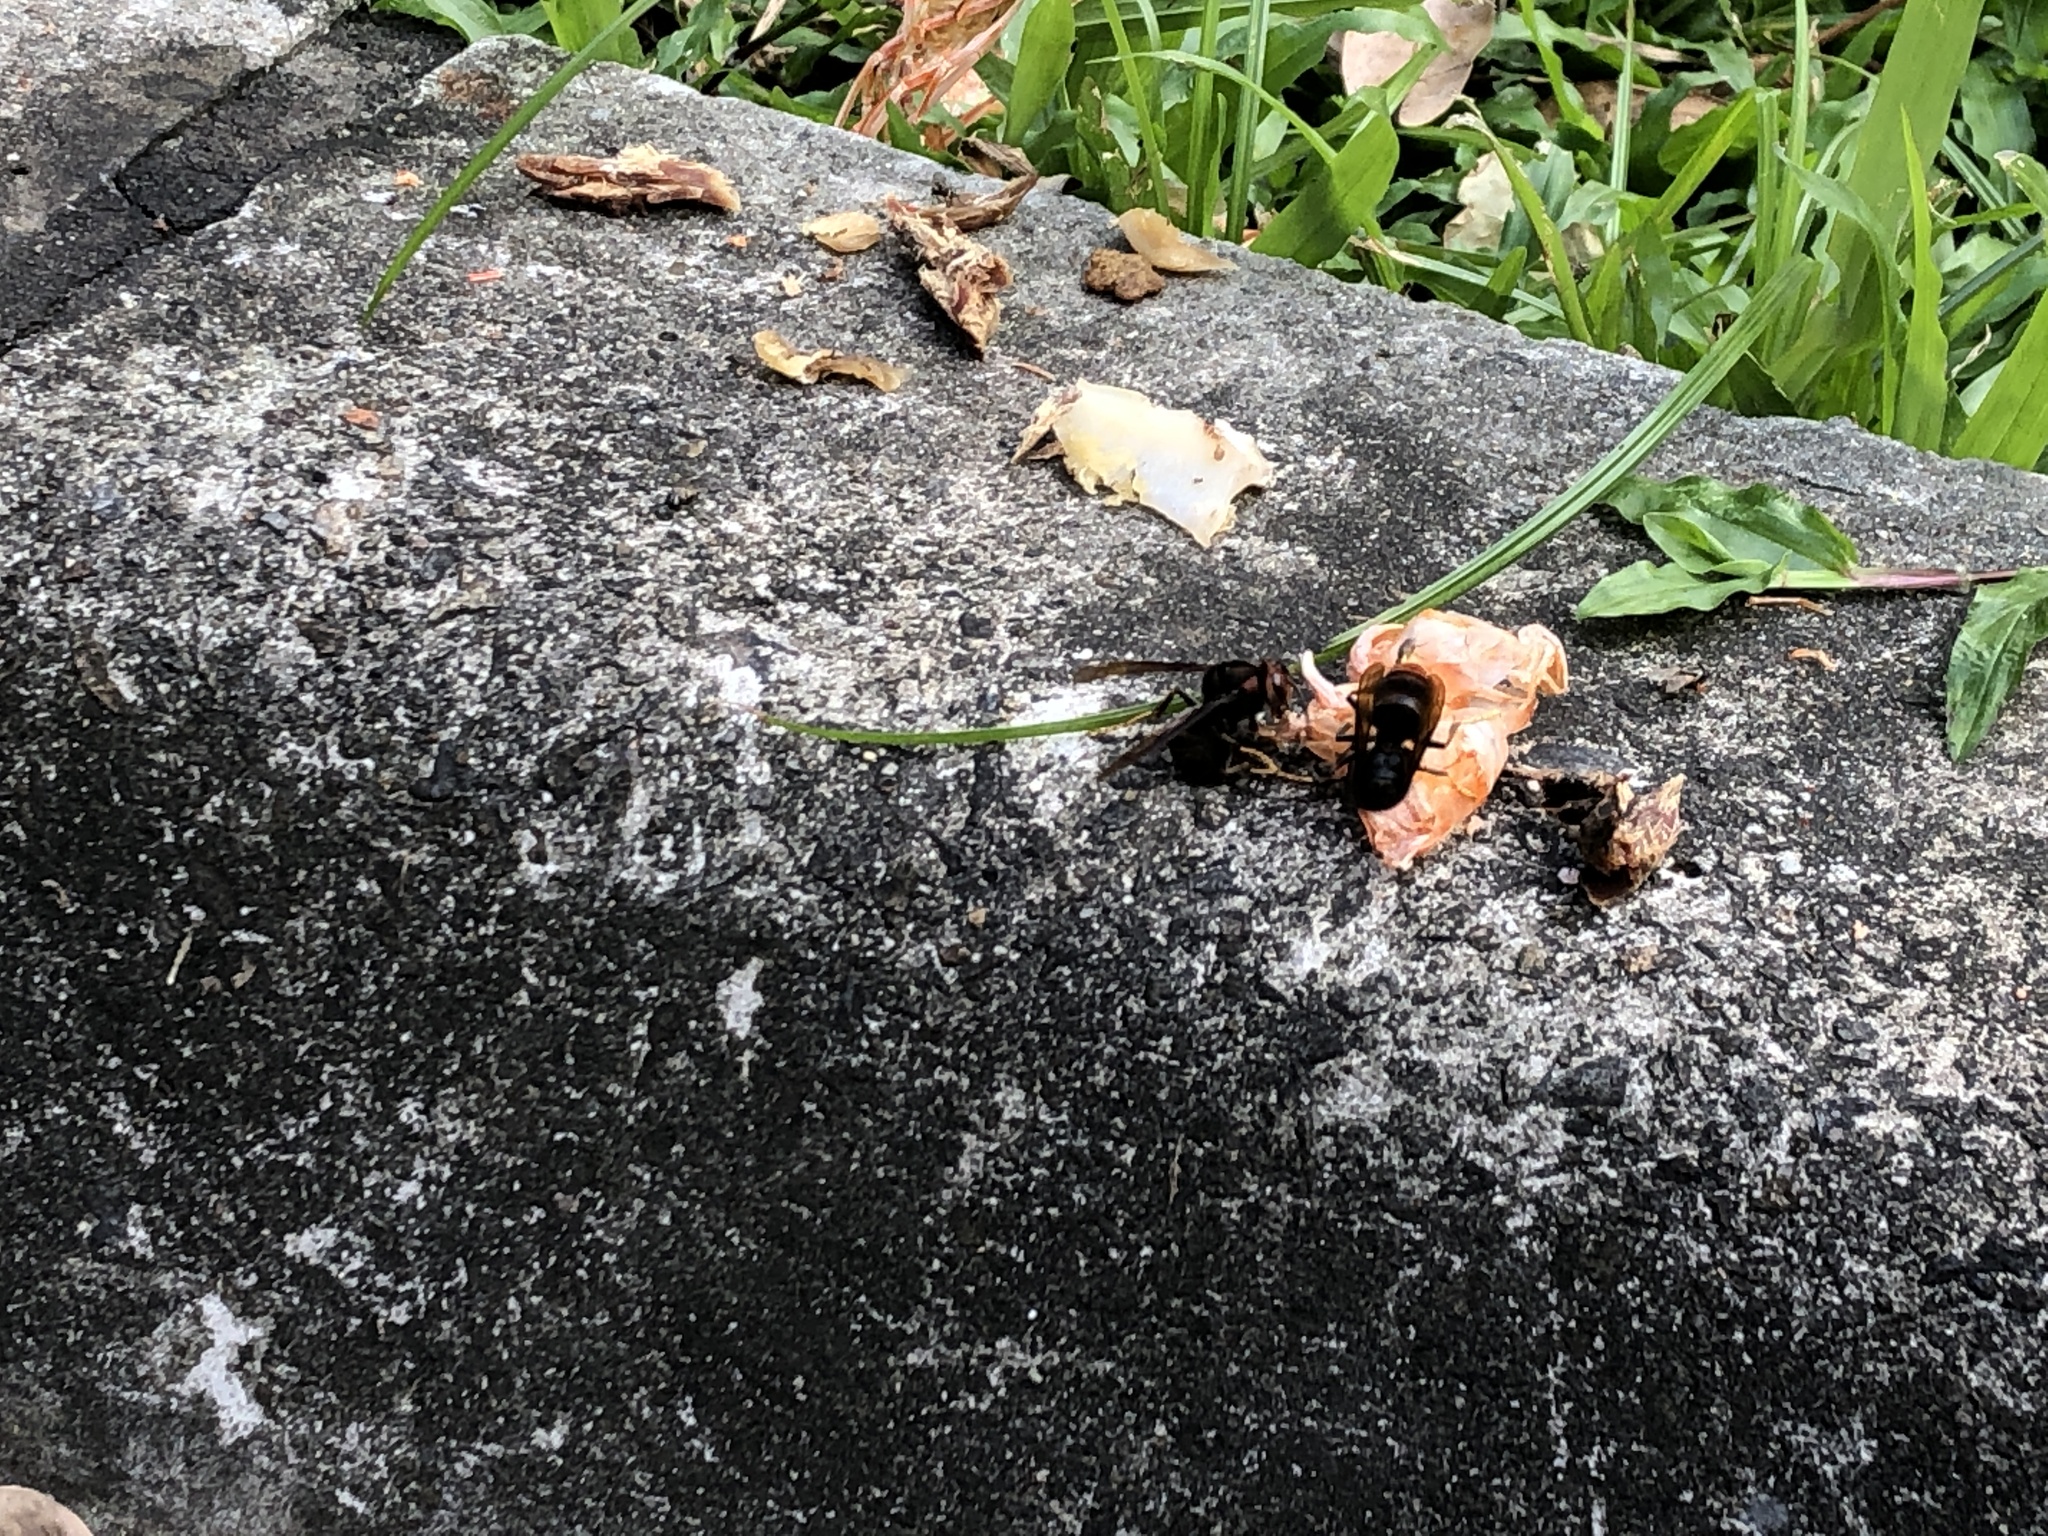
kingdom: Animalia
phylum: Arthropoda
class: Insecta
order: Hymenoptera
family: Vespidae
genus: Vespa
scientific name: Vespa velutina
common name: Asian hornet
